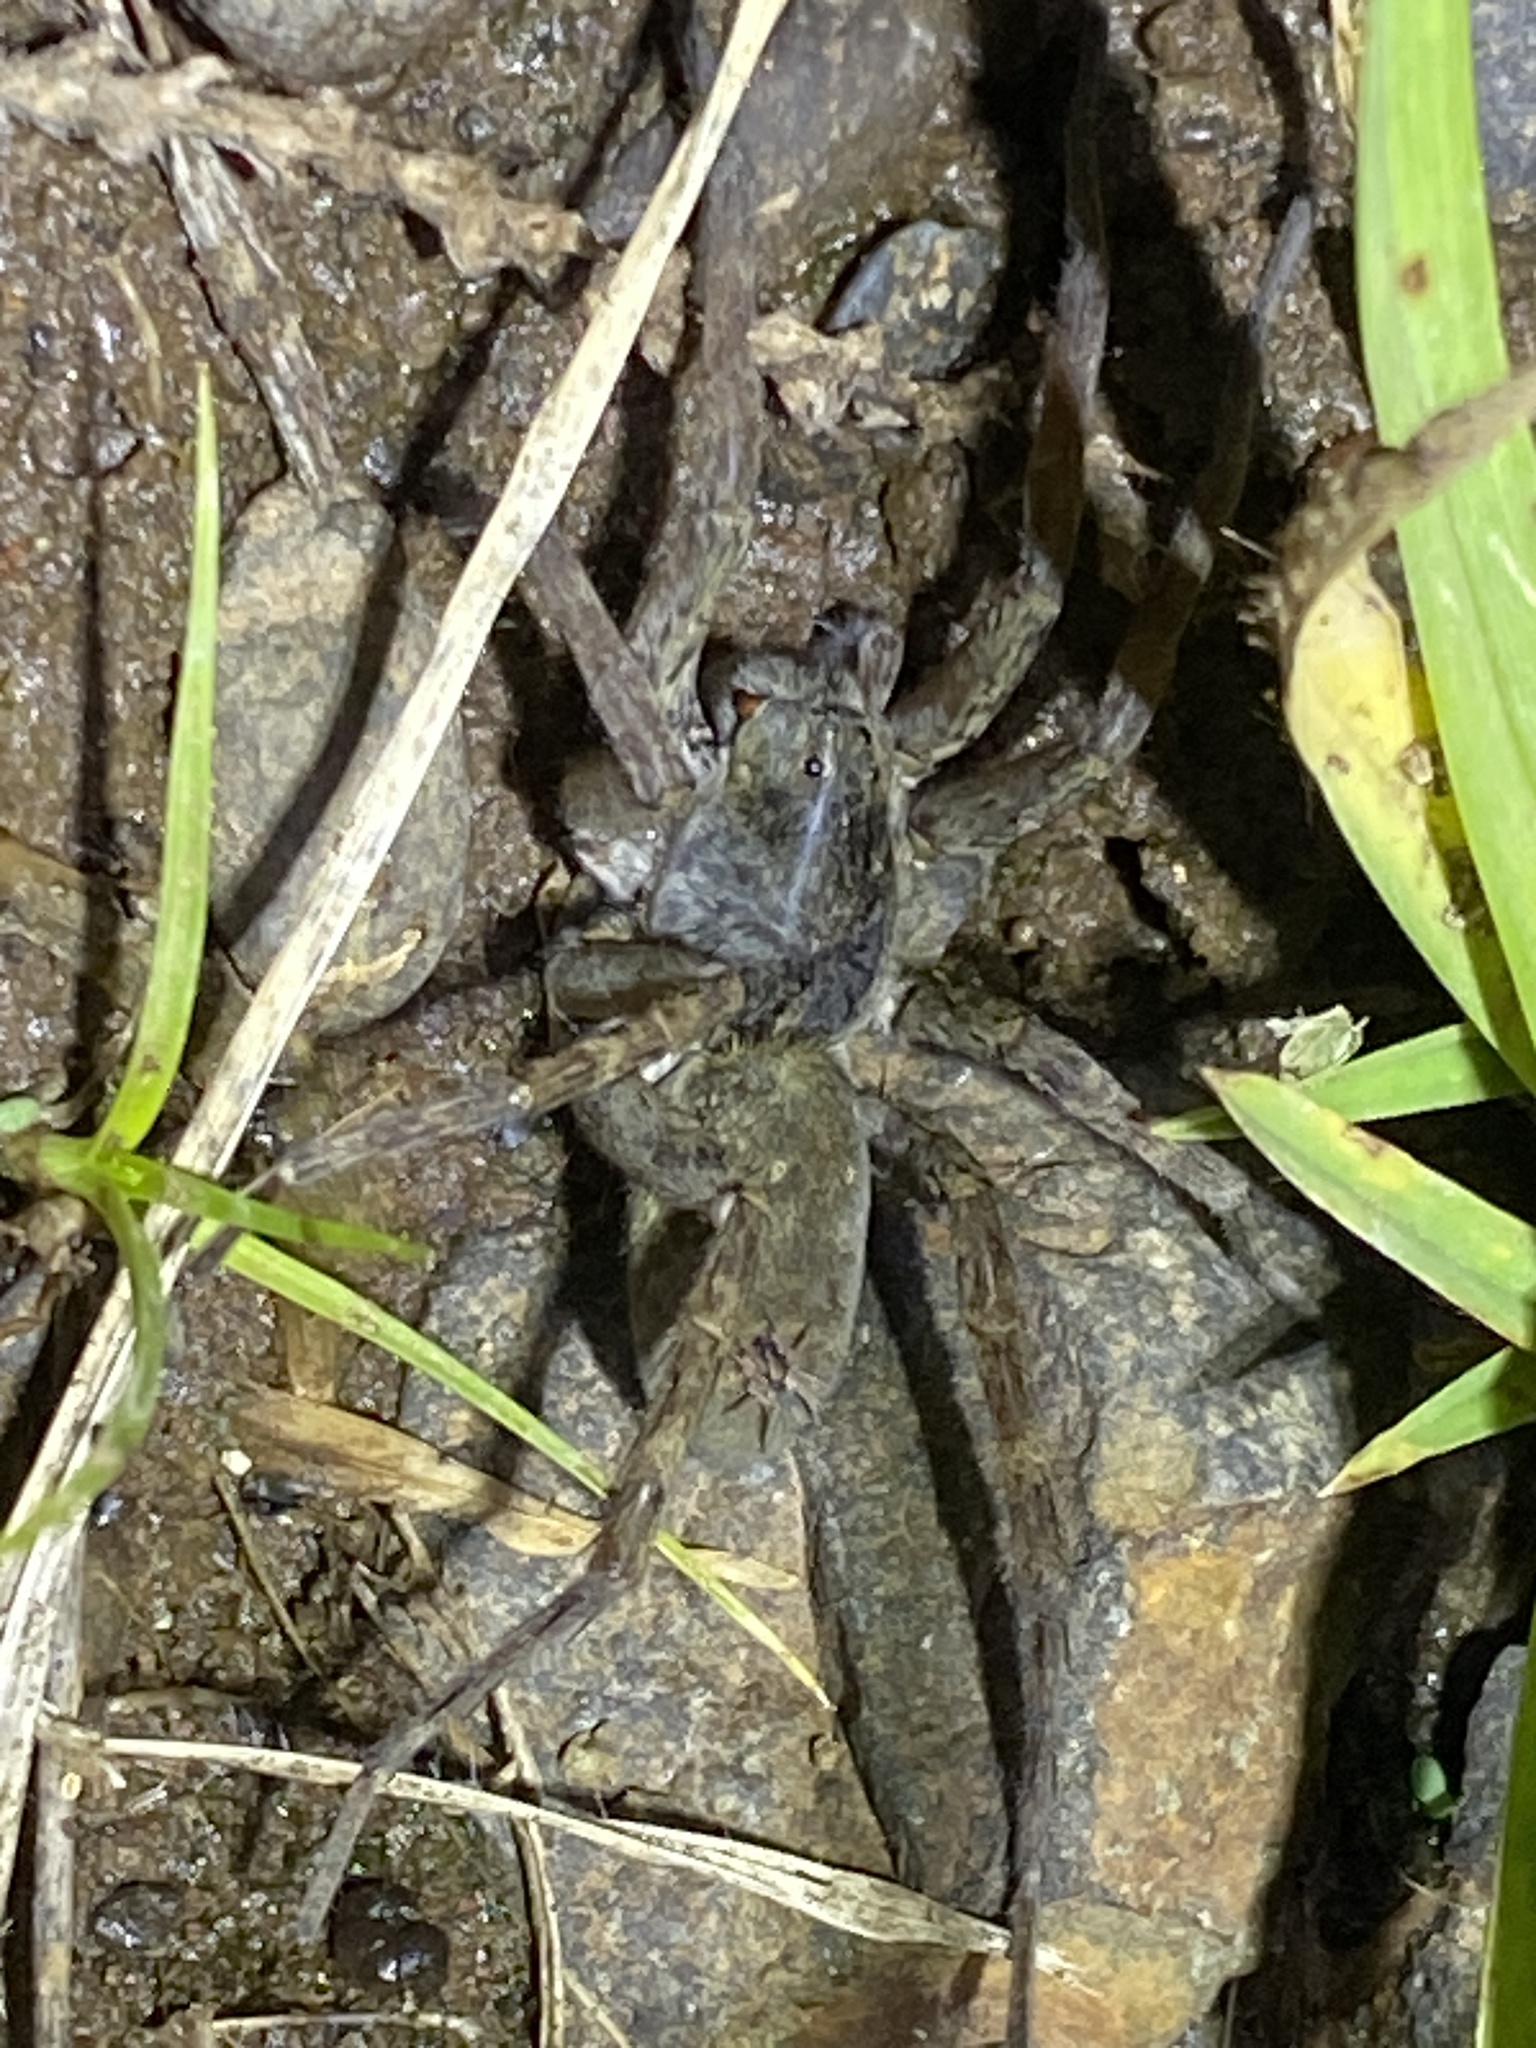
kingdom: Animalia
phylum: Arthropoda
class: Arachnida
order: Araneae
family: Lycosidae
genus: Venatrix
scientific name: Venatrix lapidosa
